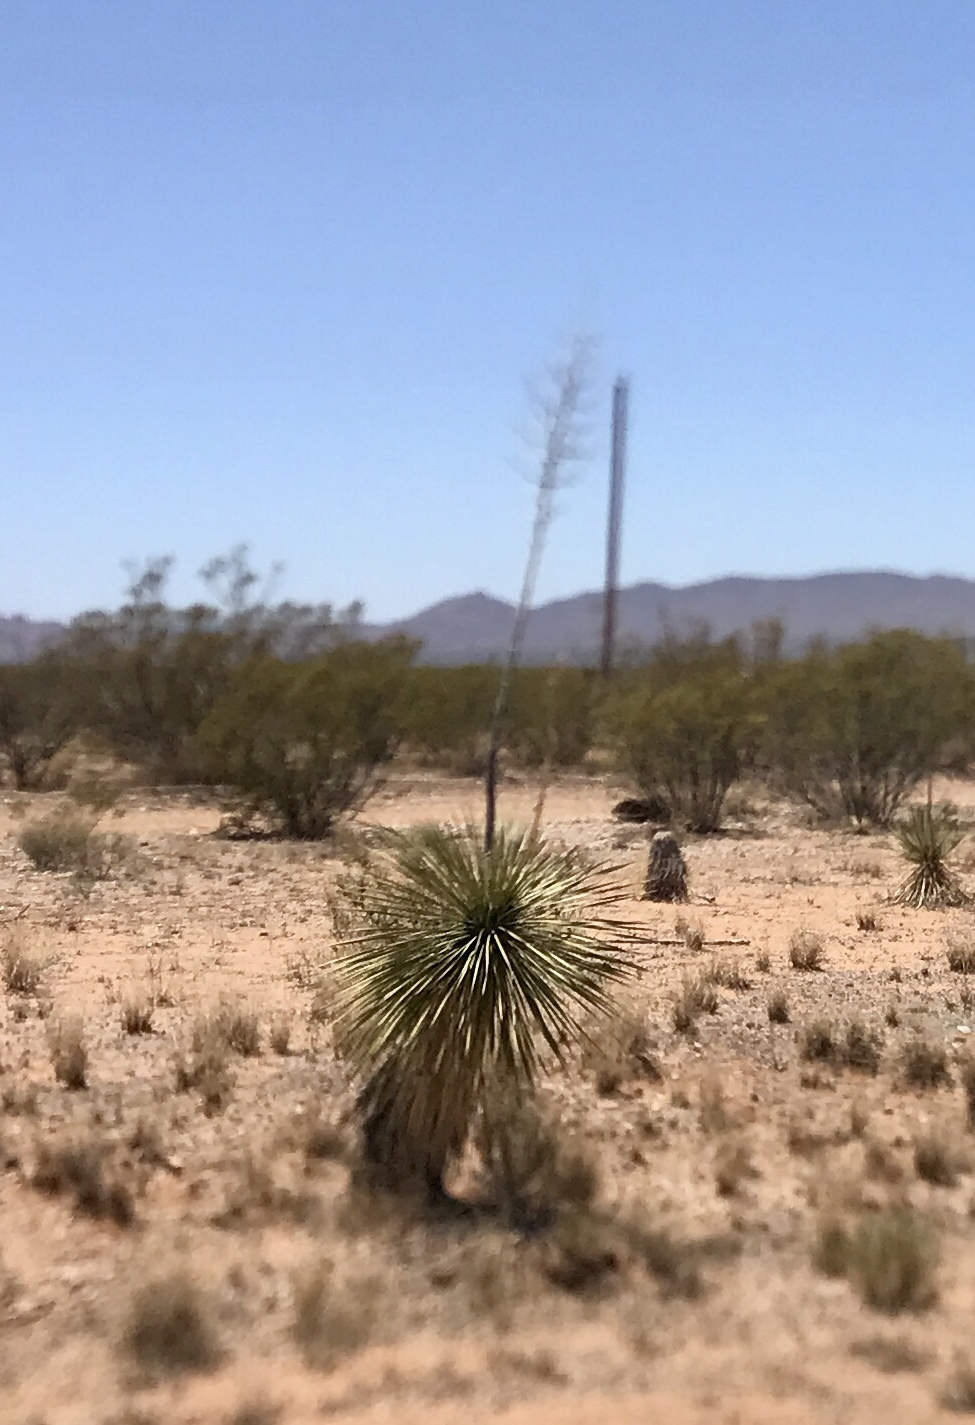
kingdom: Plantae
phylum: Tracheophyta
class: Liliopsida
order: Asparagales
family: Asparagaceae
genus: Yucca
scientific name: Yucca elata
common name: Palmella
